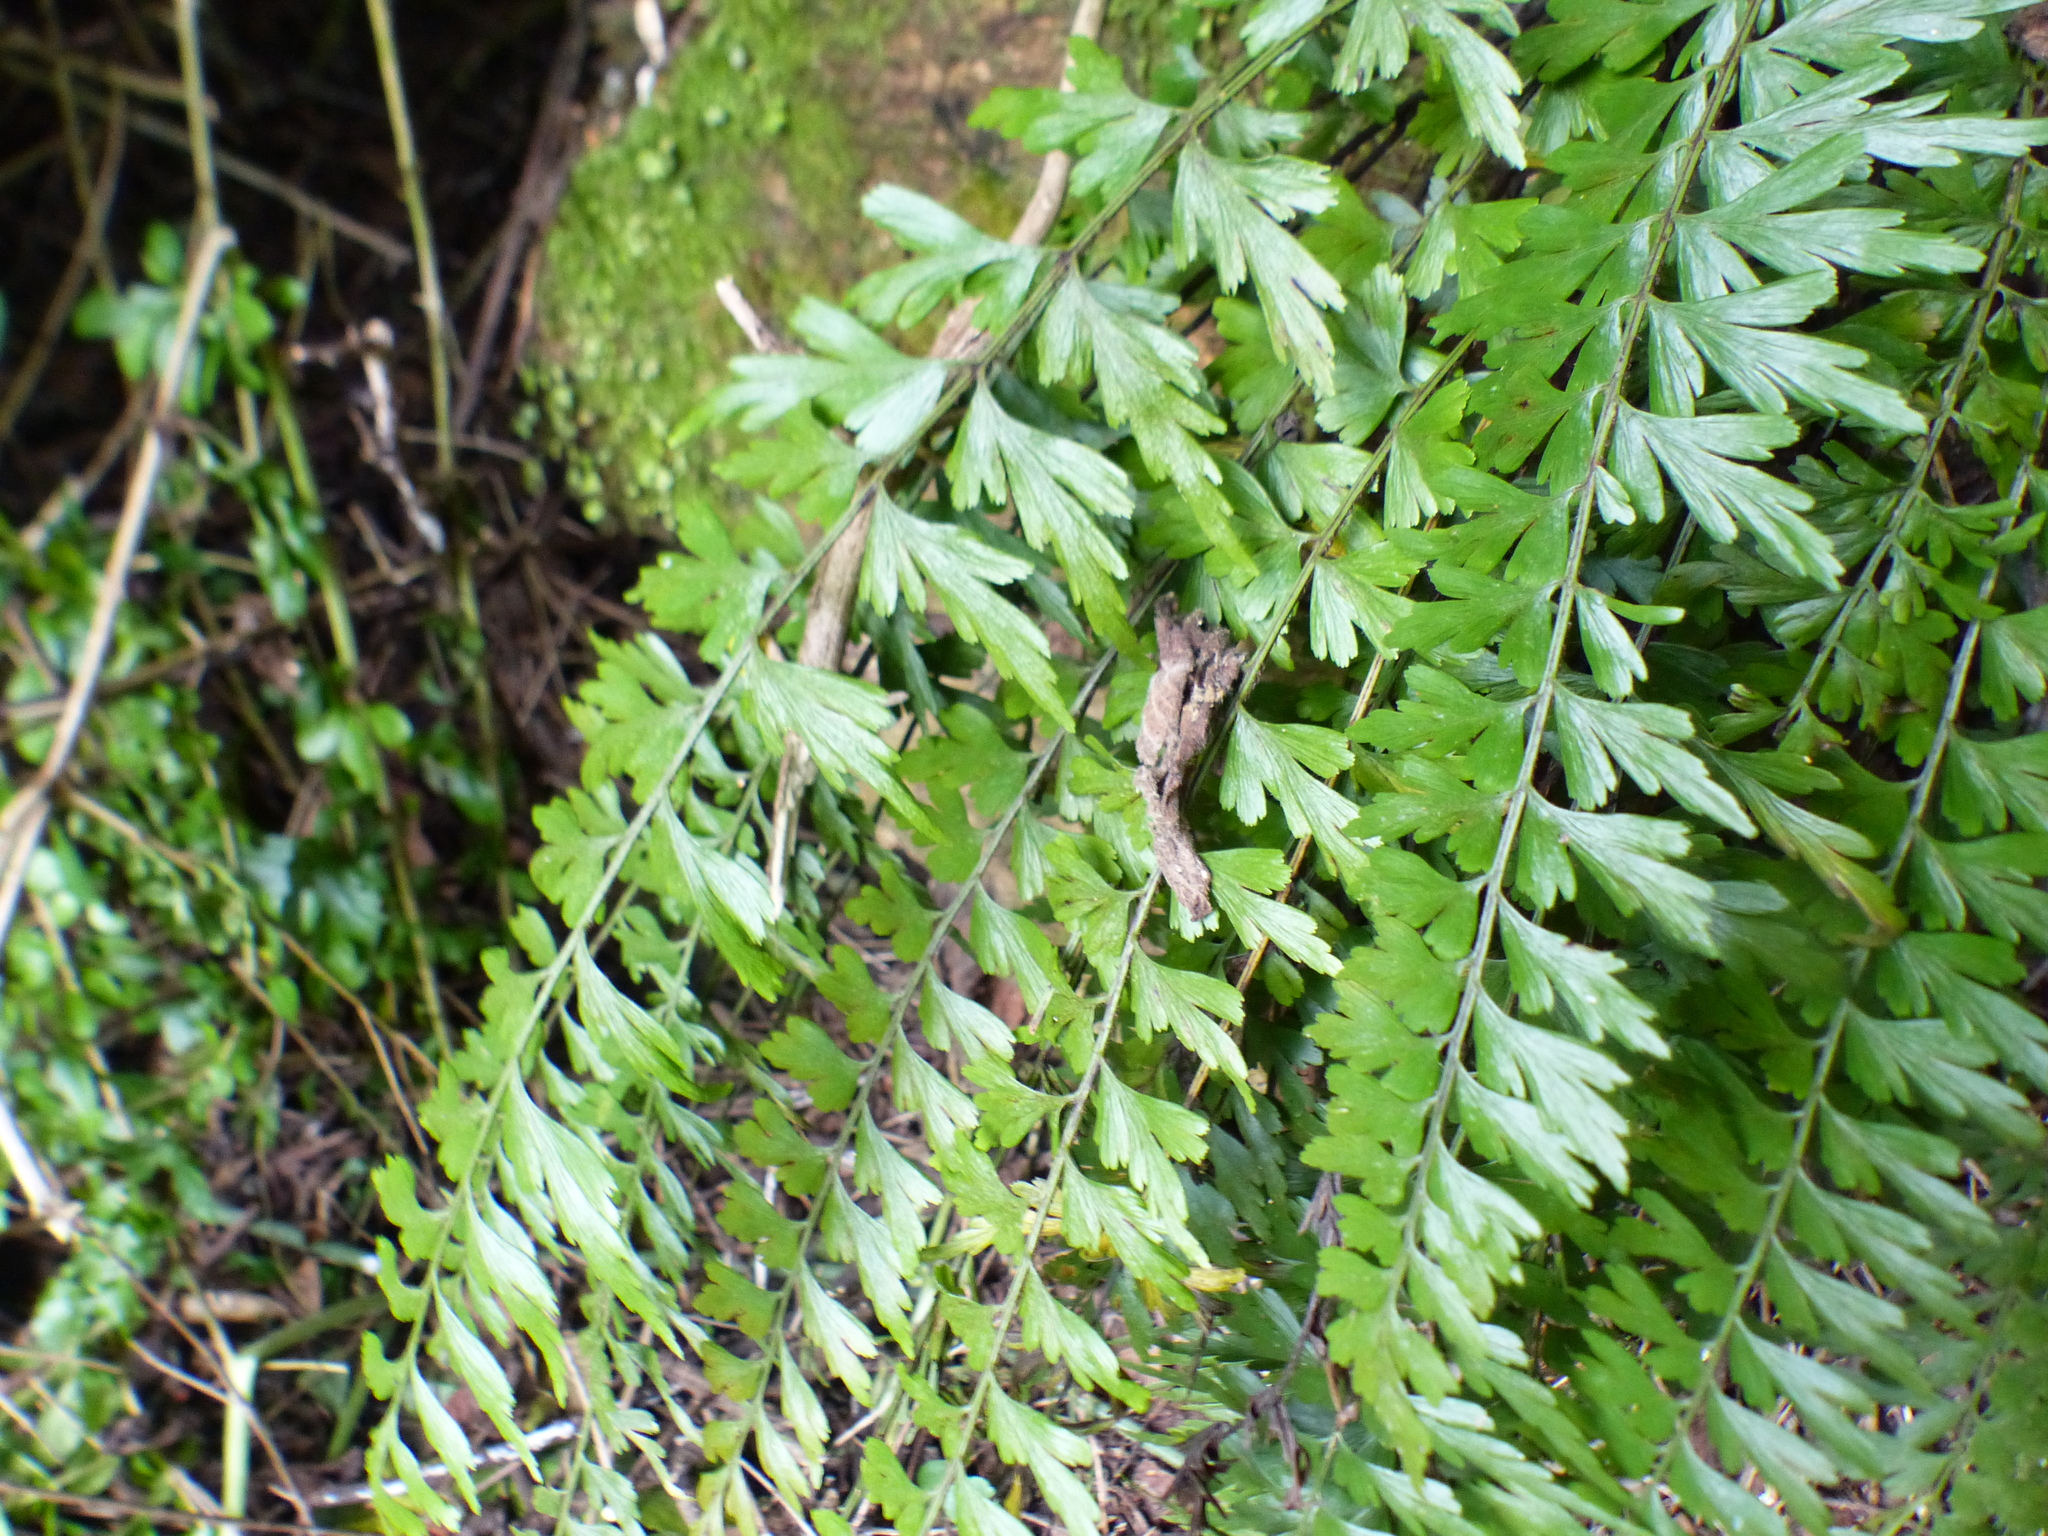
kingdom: Plantae
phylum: Tracheophyta
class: Polypodiopsida
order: Polypodiales
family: Aspleniaceae
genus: Asplenium
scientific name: Asplenium praemorsum
